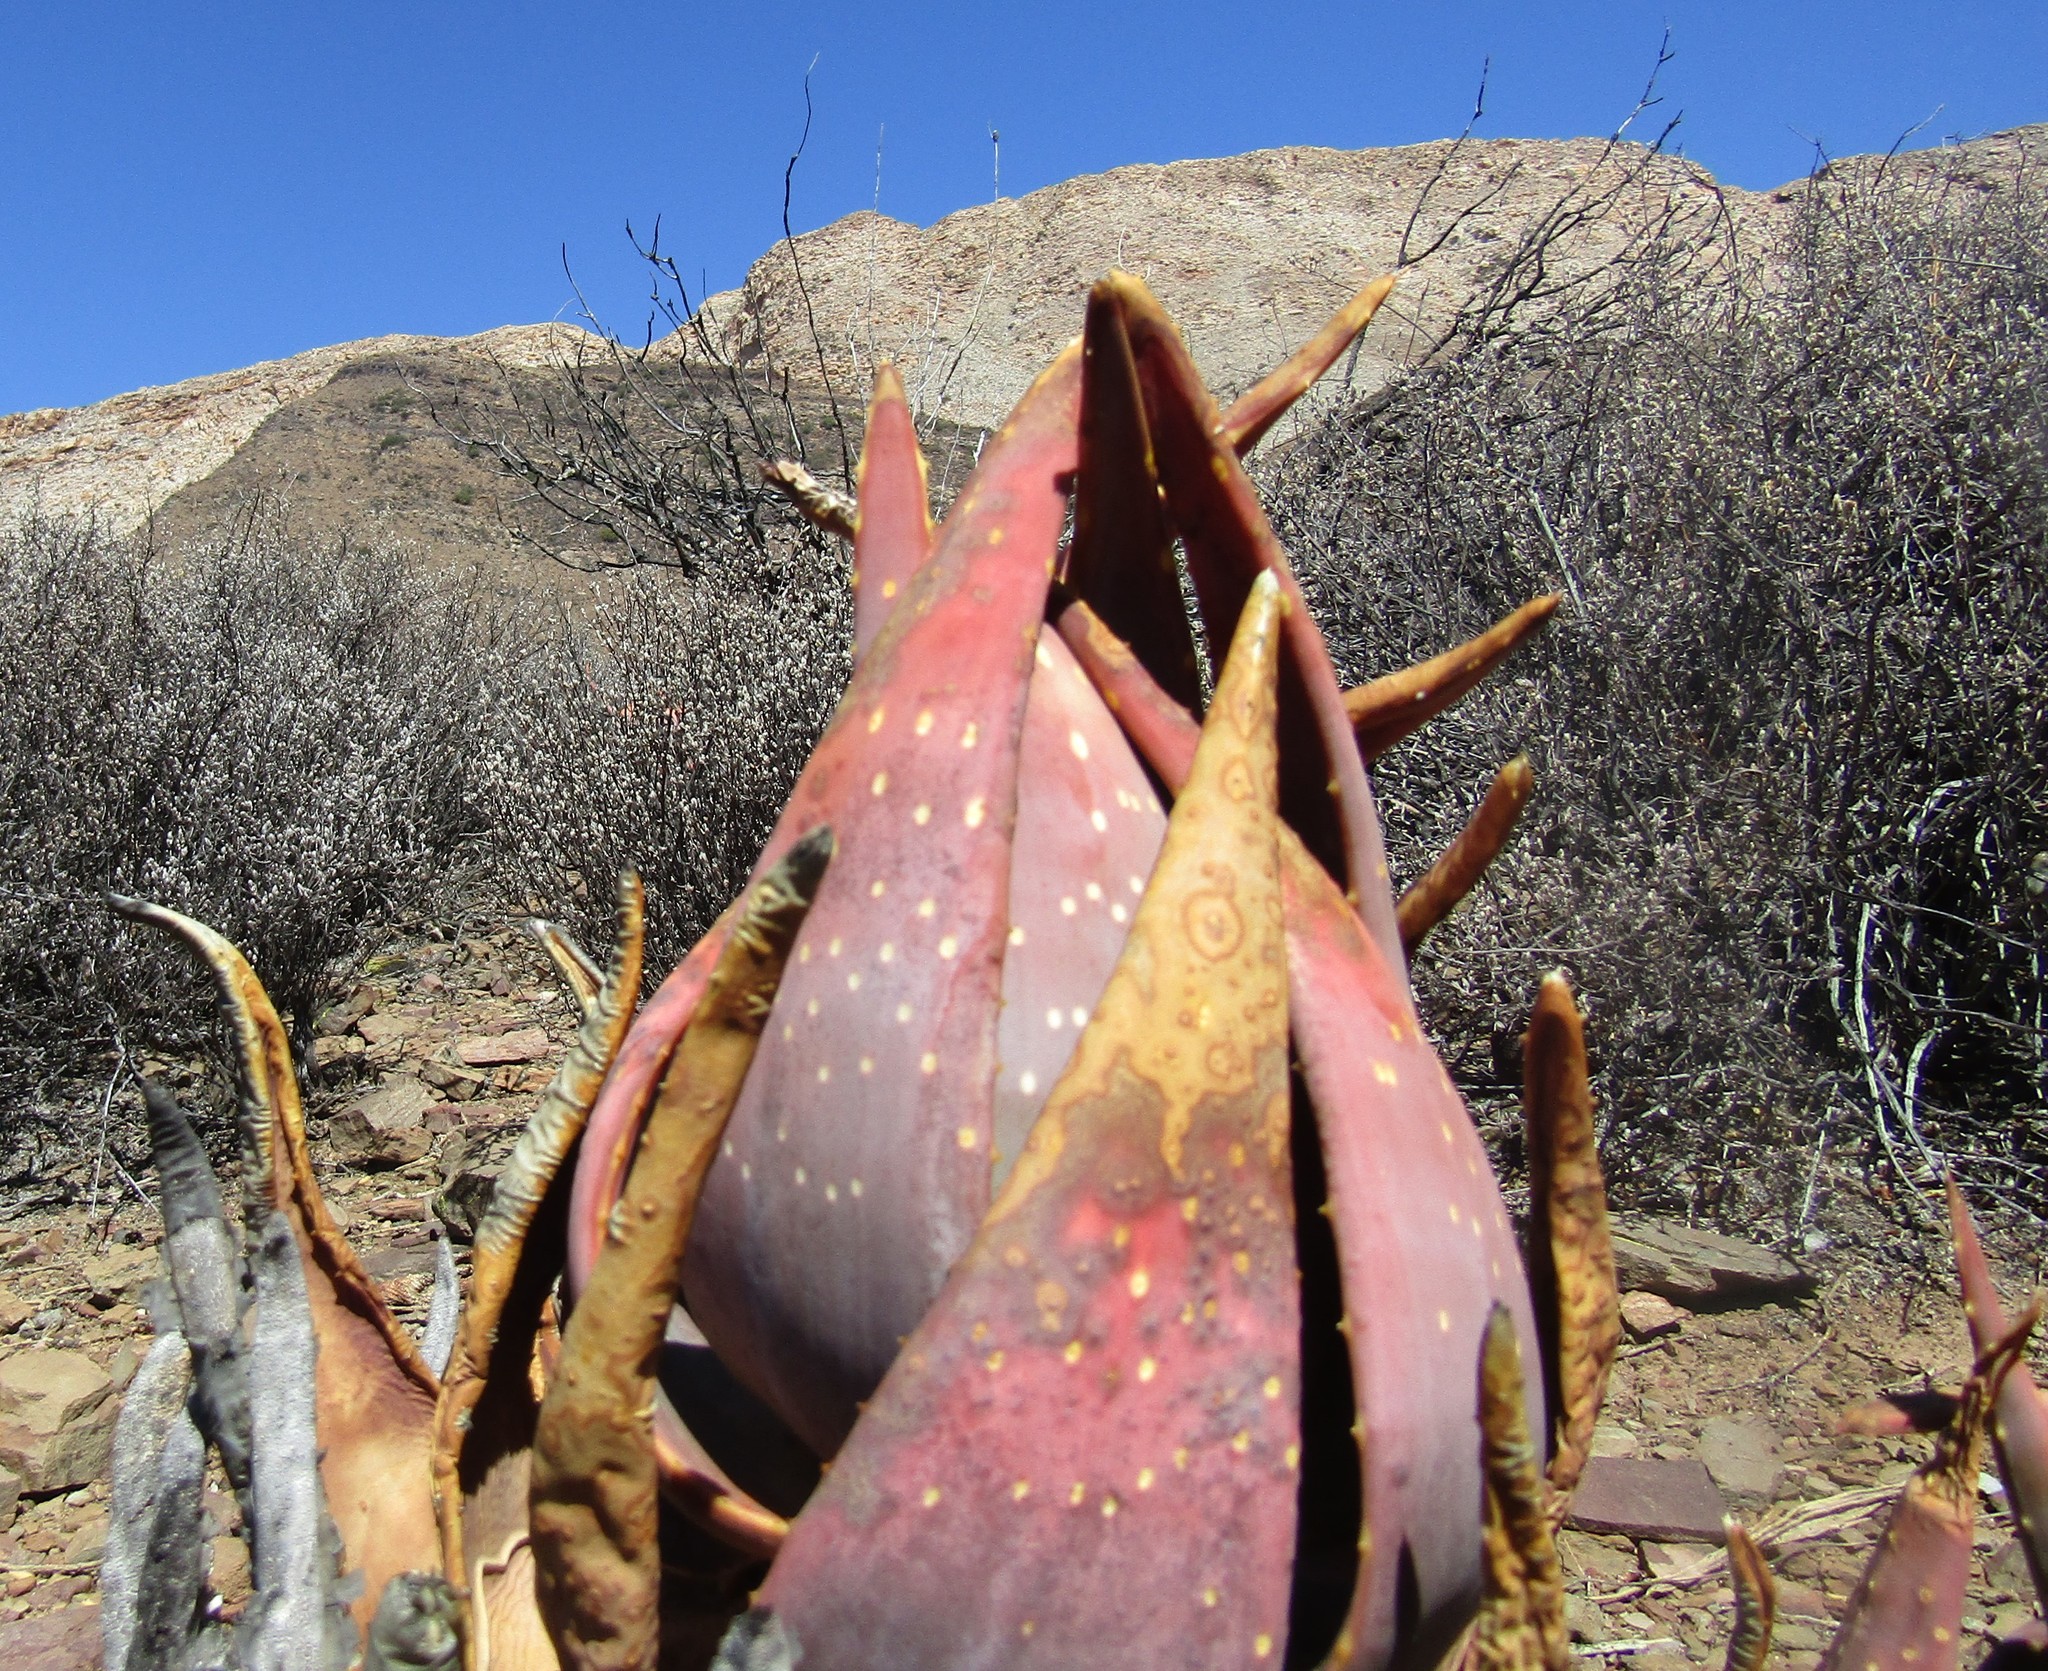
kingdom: Plantae
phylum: Tracheophyta
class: Liliopsida
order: Asparagales
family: Asphodelaceae
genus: Aloe
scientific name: Aloe comptonii
